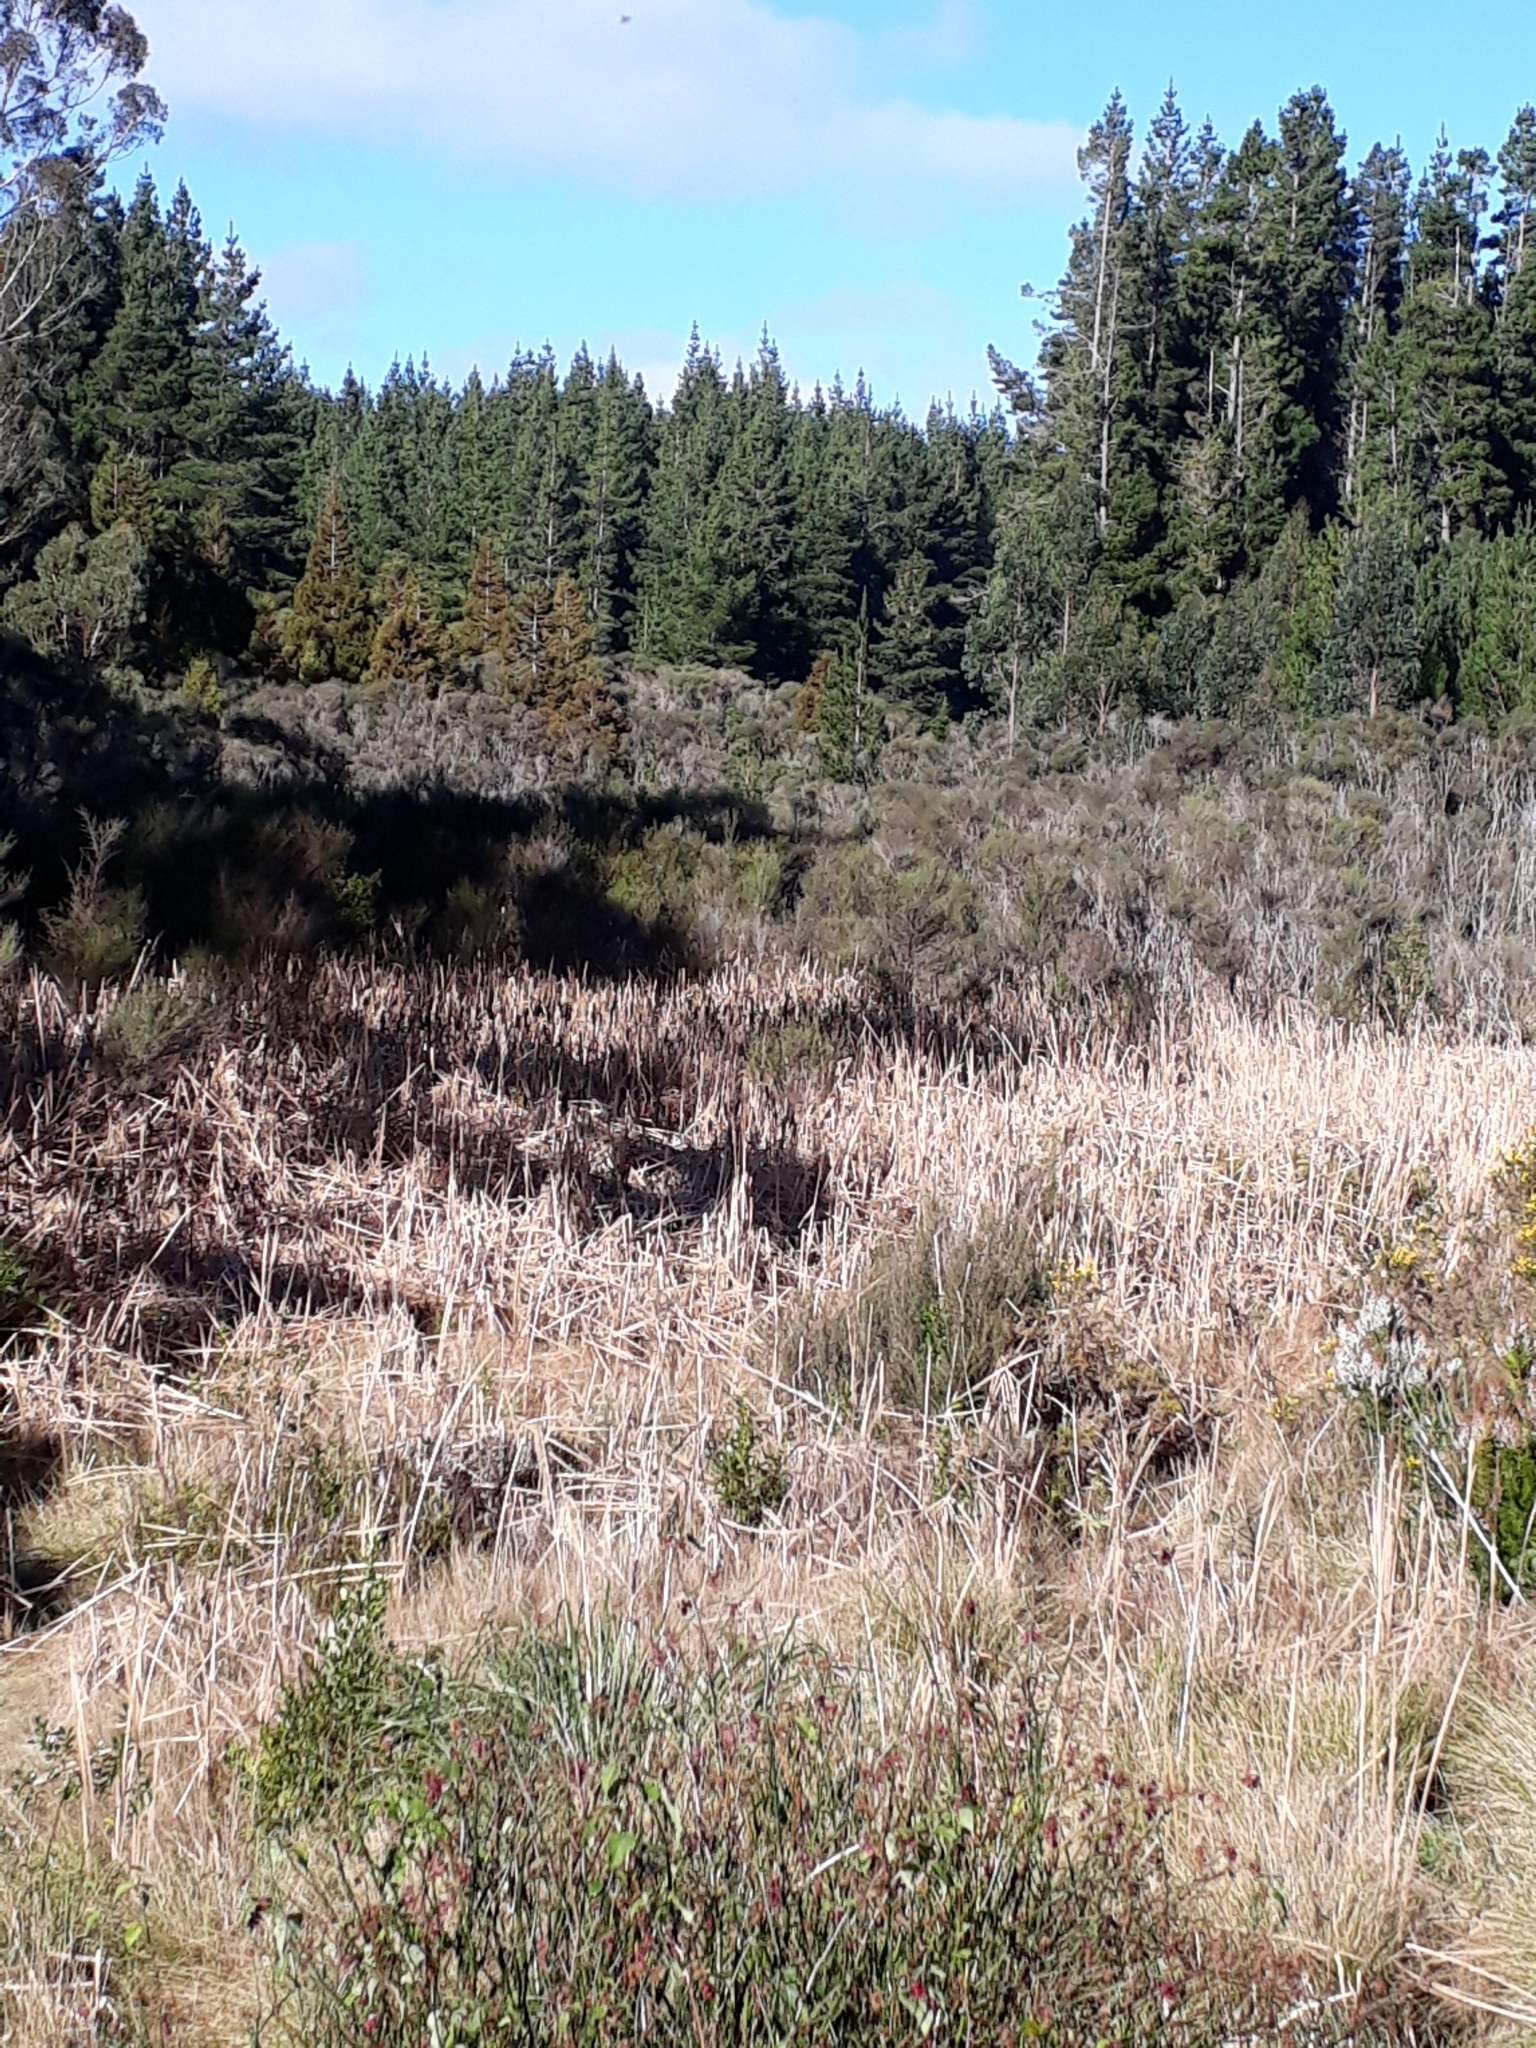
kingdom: Plantae
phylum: Tracheophyta
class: Liliopsida
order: Poales
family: Typhaceae
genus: Typha
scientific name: Typha orientalis
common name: Bullrush
